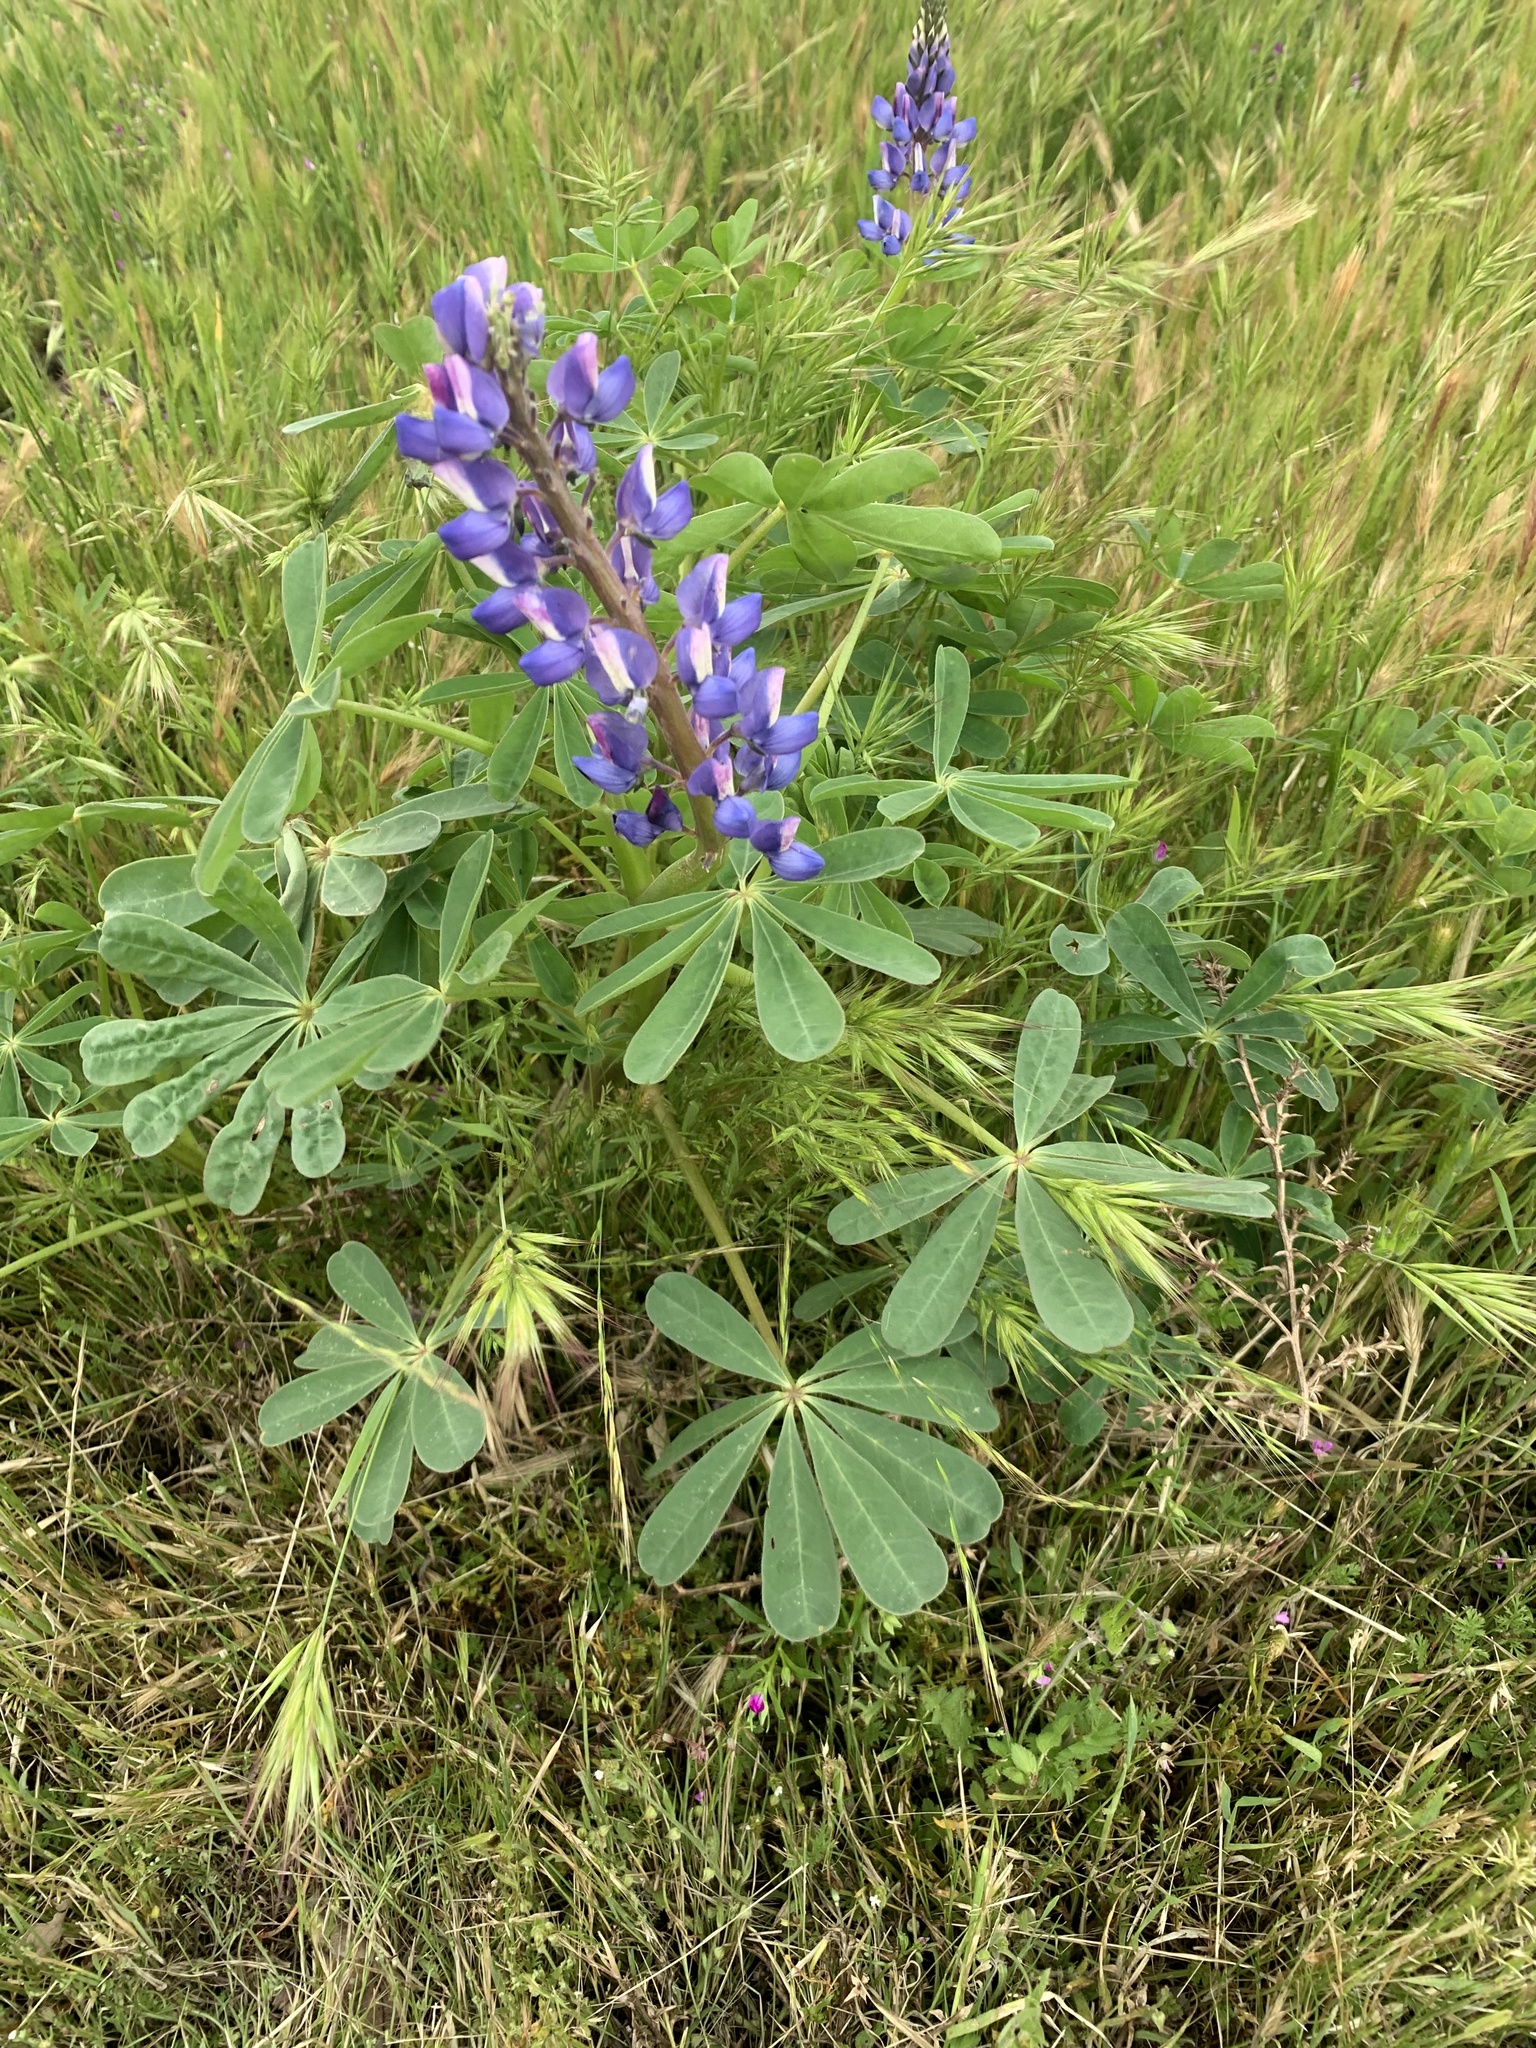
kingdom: Plantae
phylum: Tracheophyta
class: Magnoliopsida
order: Fabales
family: Fabaceae
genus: Lupinus
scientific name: Lupinus succulentus
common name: Arroyo lupine
